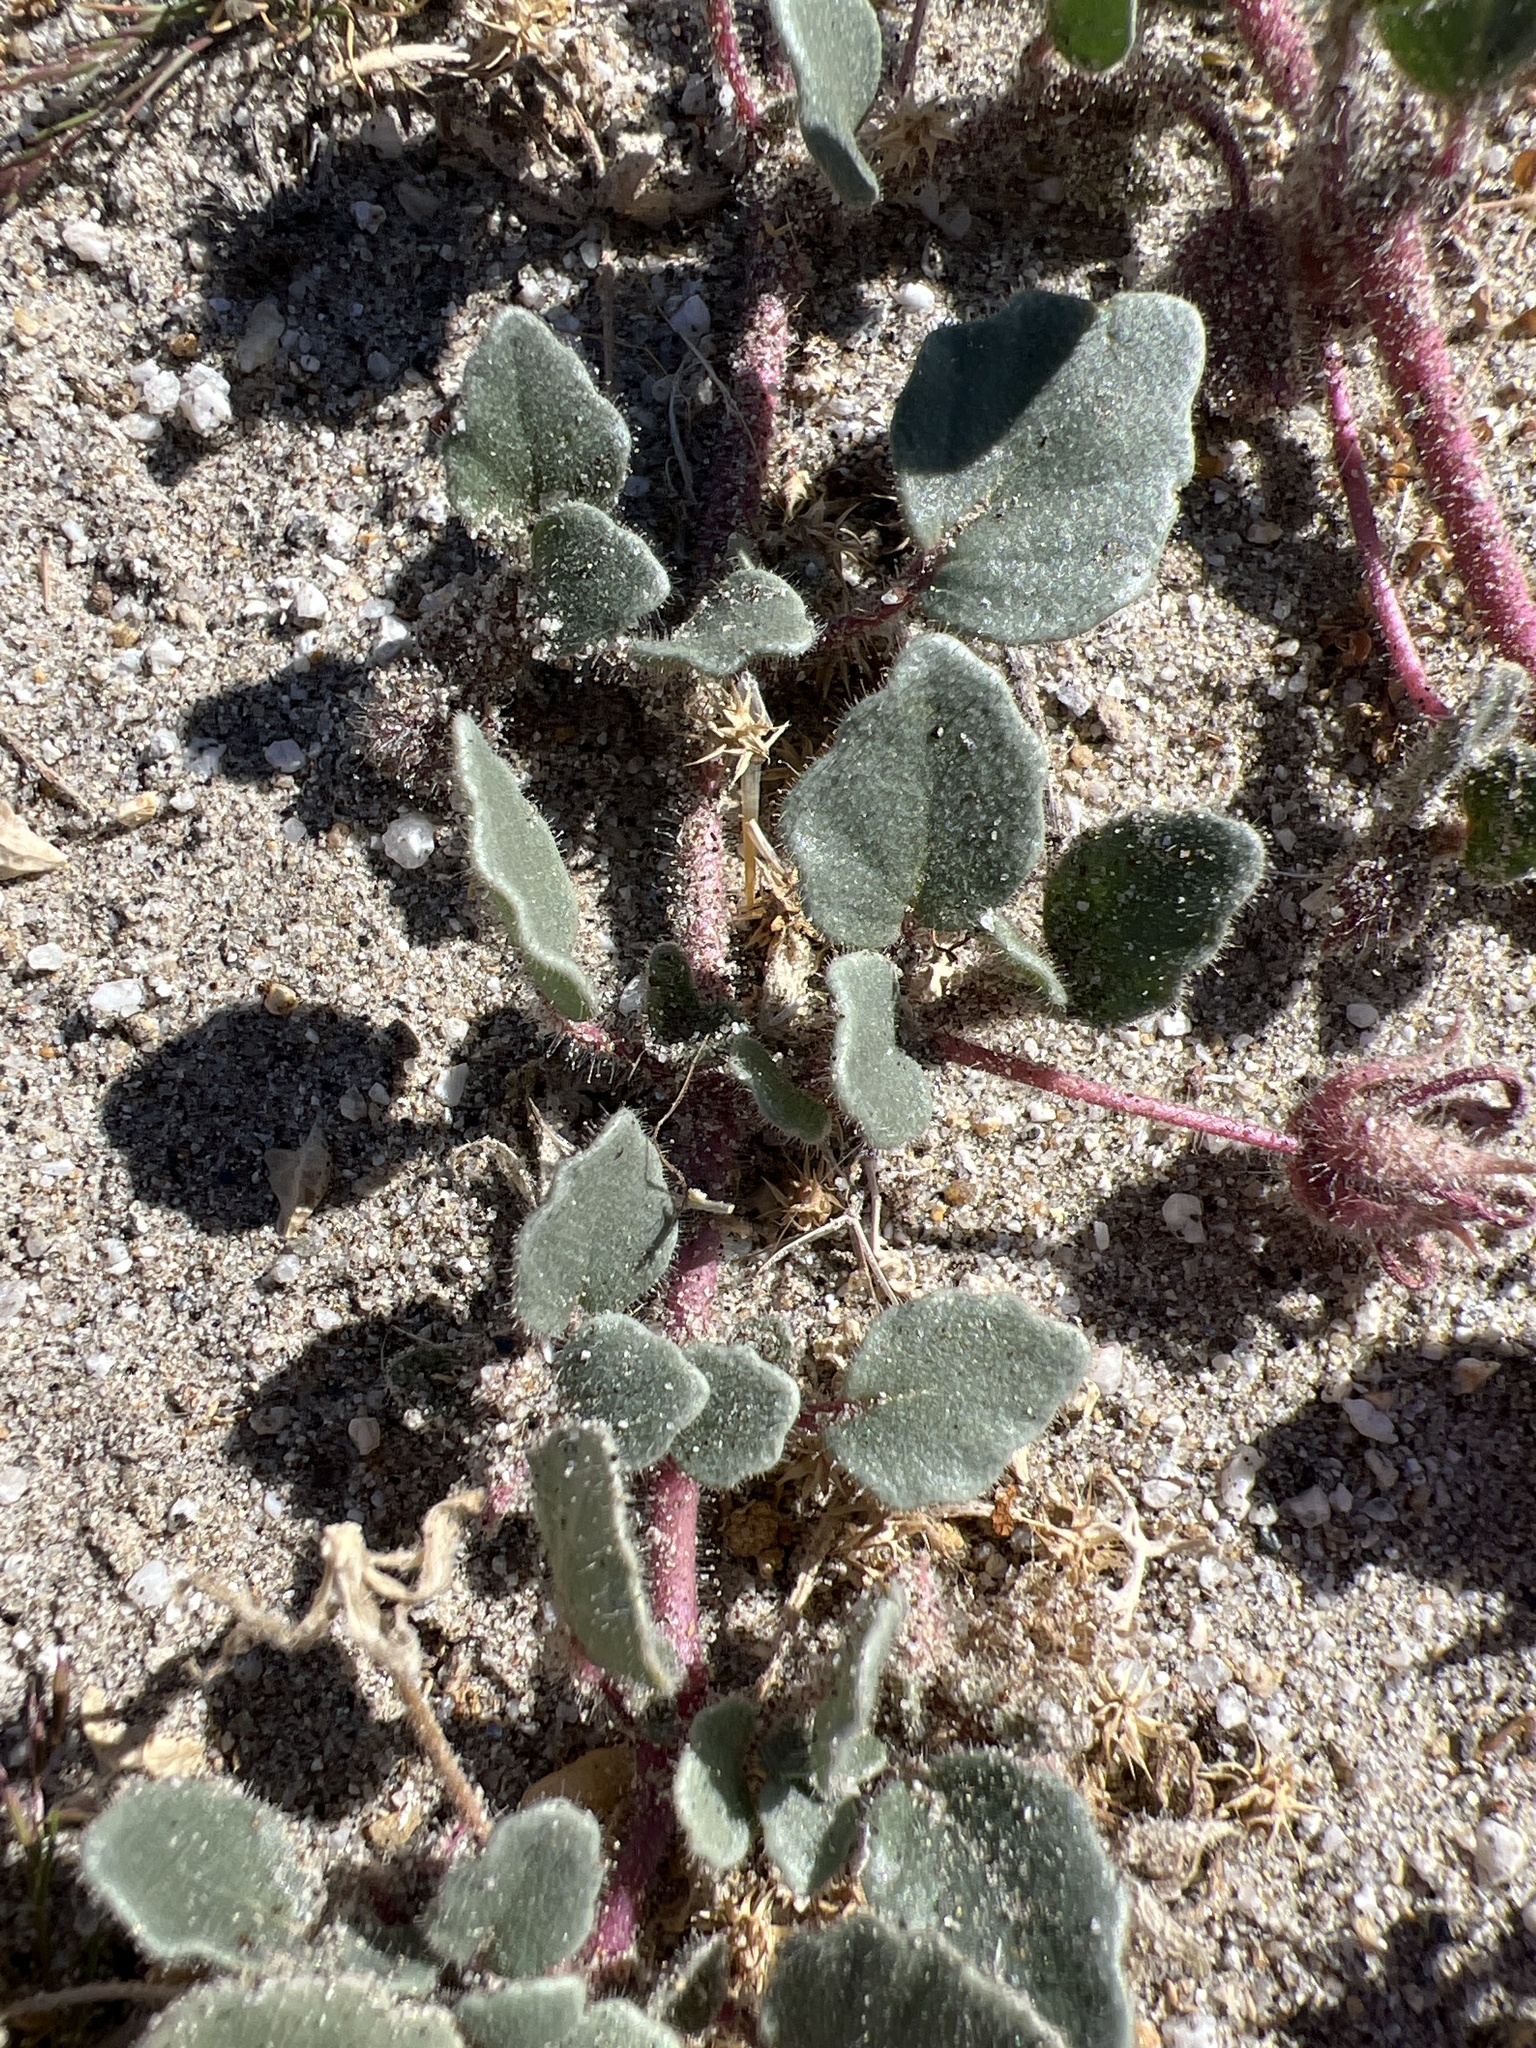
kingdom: Plantae
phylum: Tracheophyta
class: Magnoliopsida
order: Caryophyllales
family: Nyctaginaceae
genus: Abronia
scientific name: Abronia villosa
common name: Desert sand-verbena
